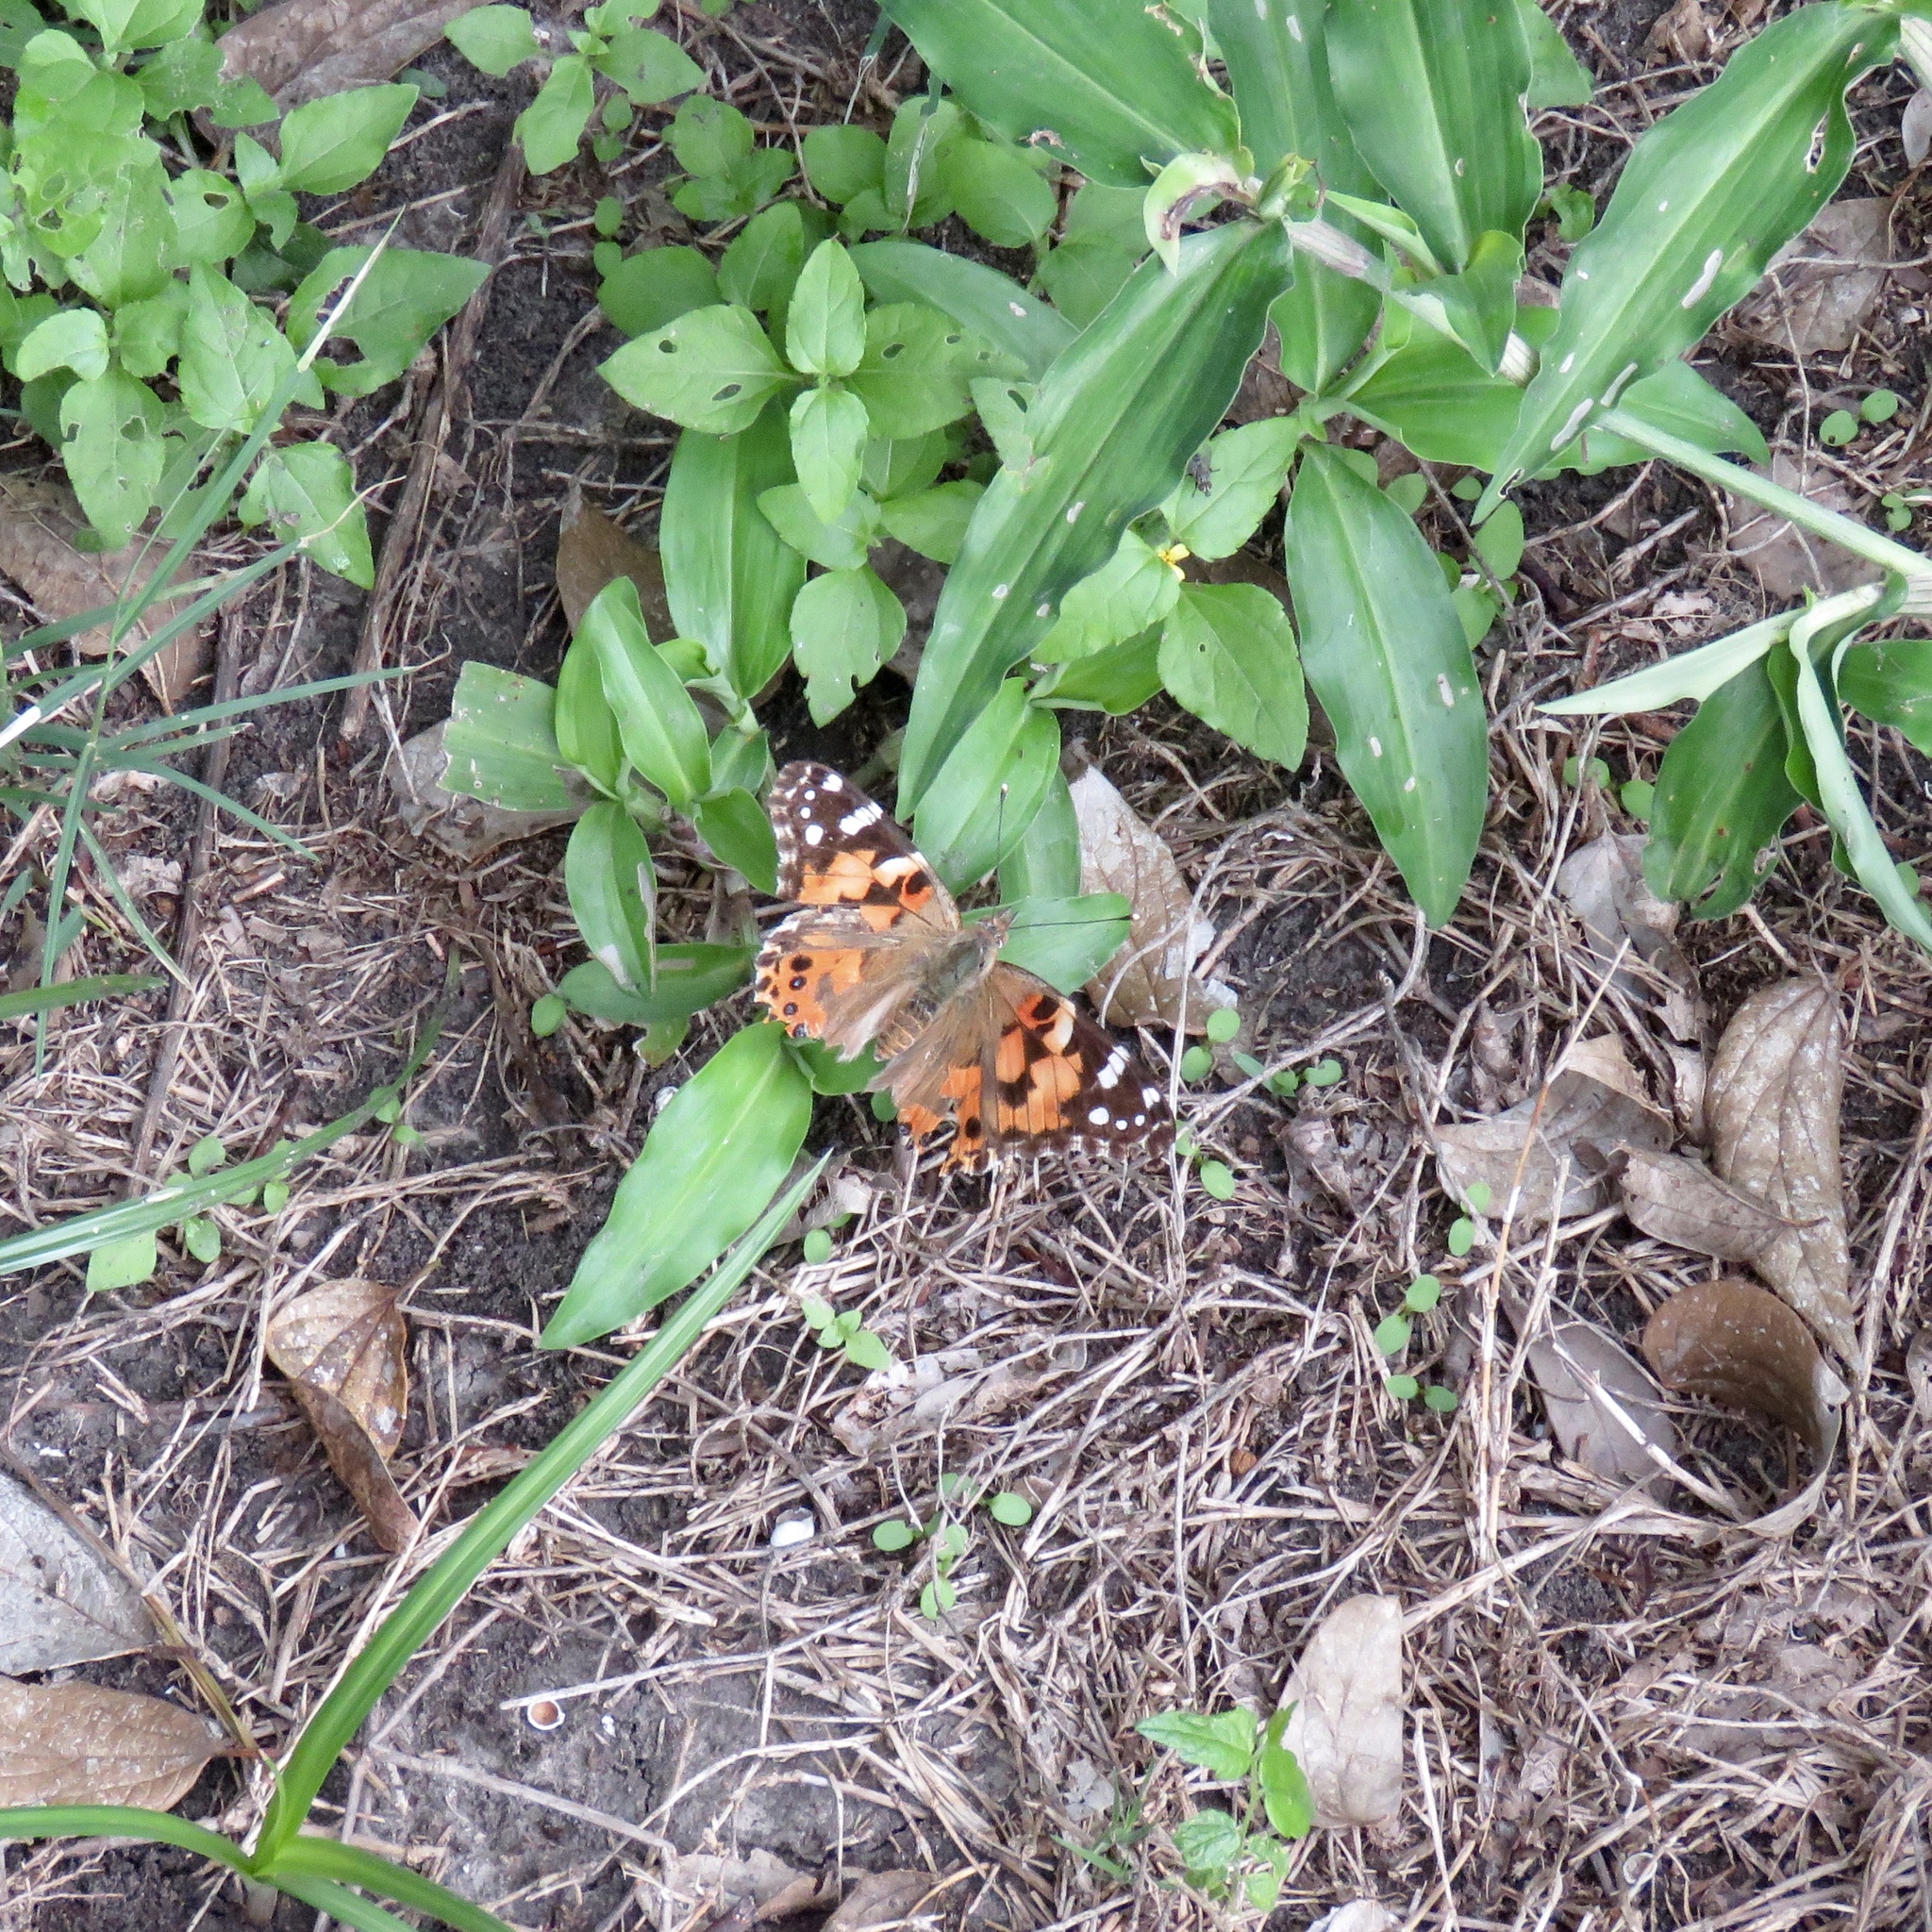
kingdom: Animalia
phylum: Arthropoda
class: Insecta
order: Lepidoptera
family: Nymphalidae
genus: Vanessa
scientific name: Vanessa cardui
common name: Painted lady
